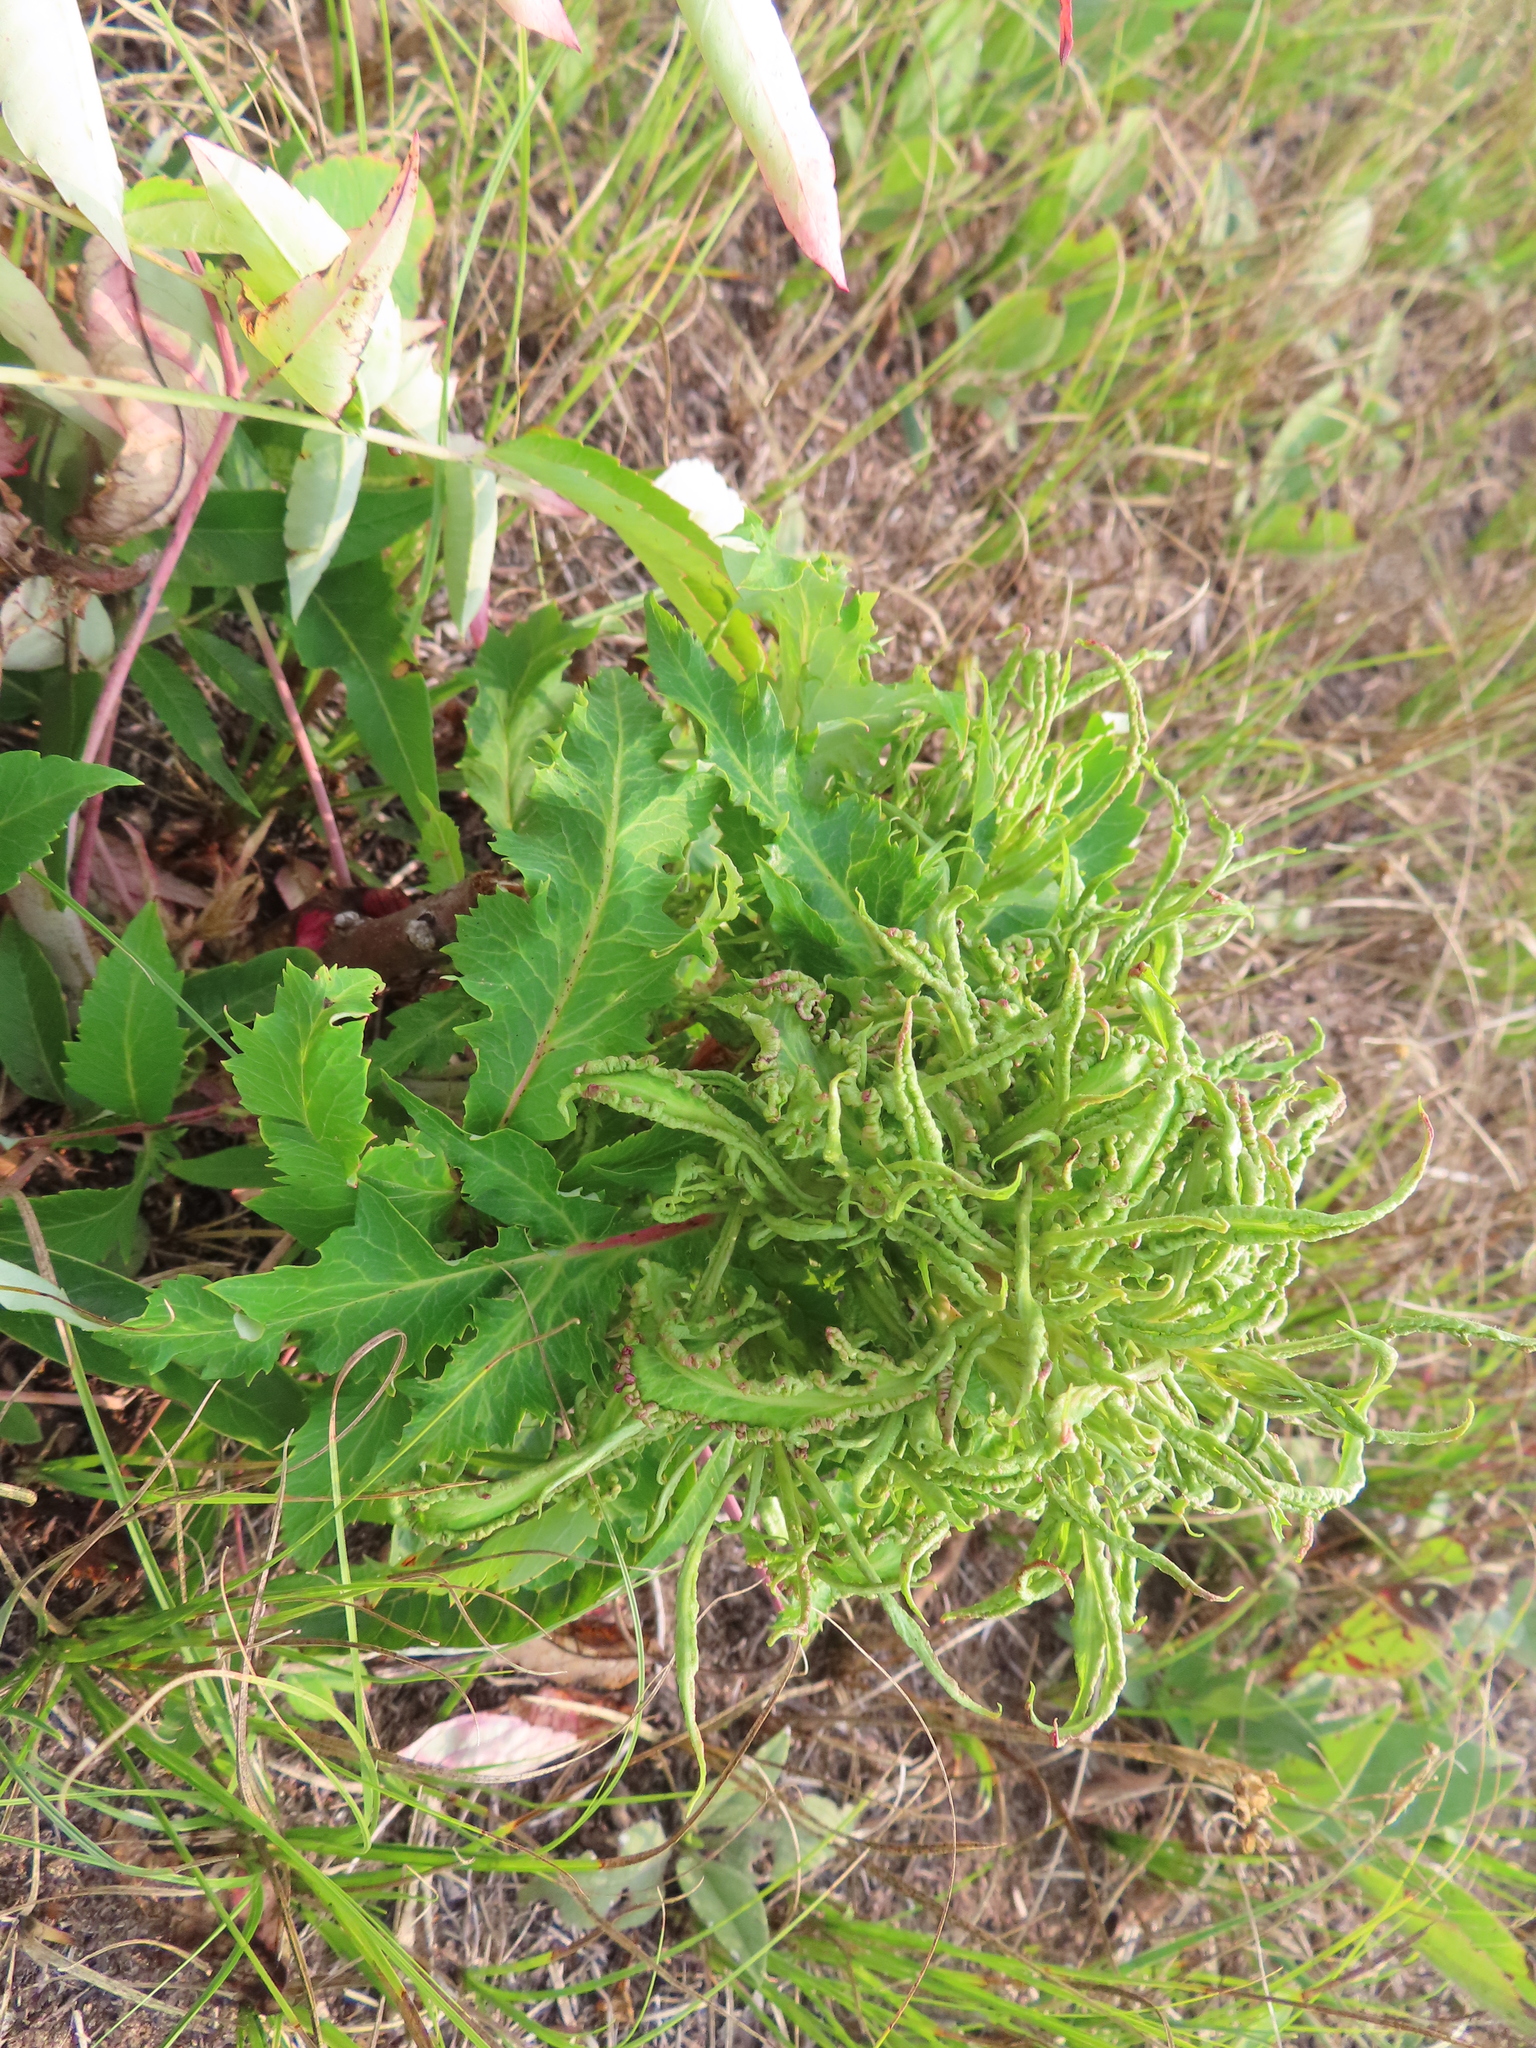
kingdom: Animalia
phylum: Arthropoda
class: Arachnida
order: Trombidiformes
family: Eriophyidae
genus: Eriophyes
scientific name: Eriophyes
